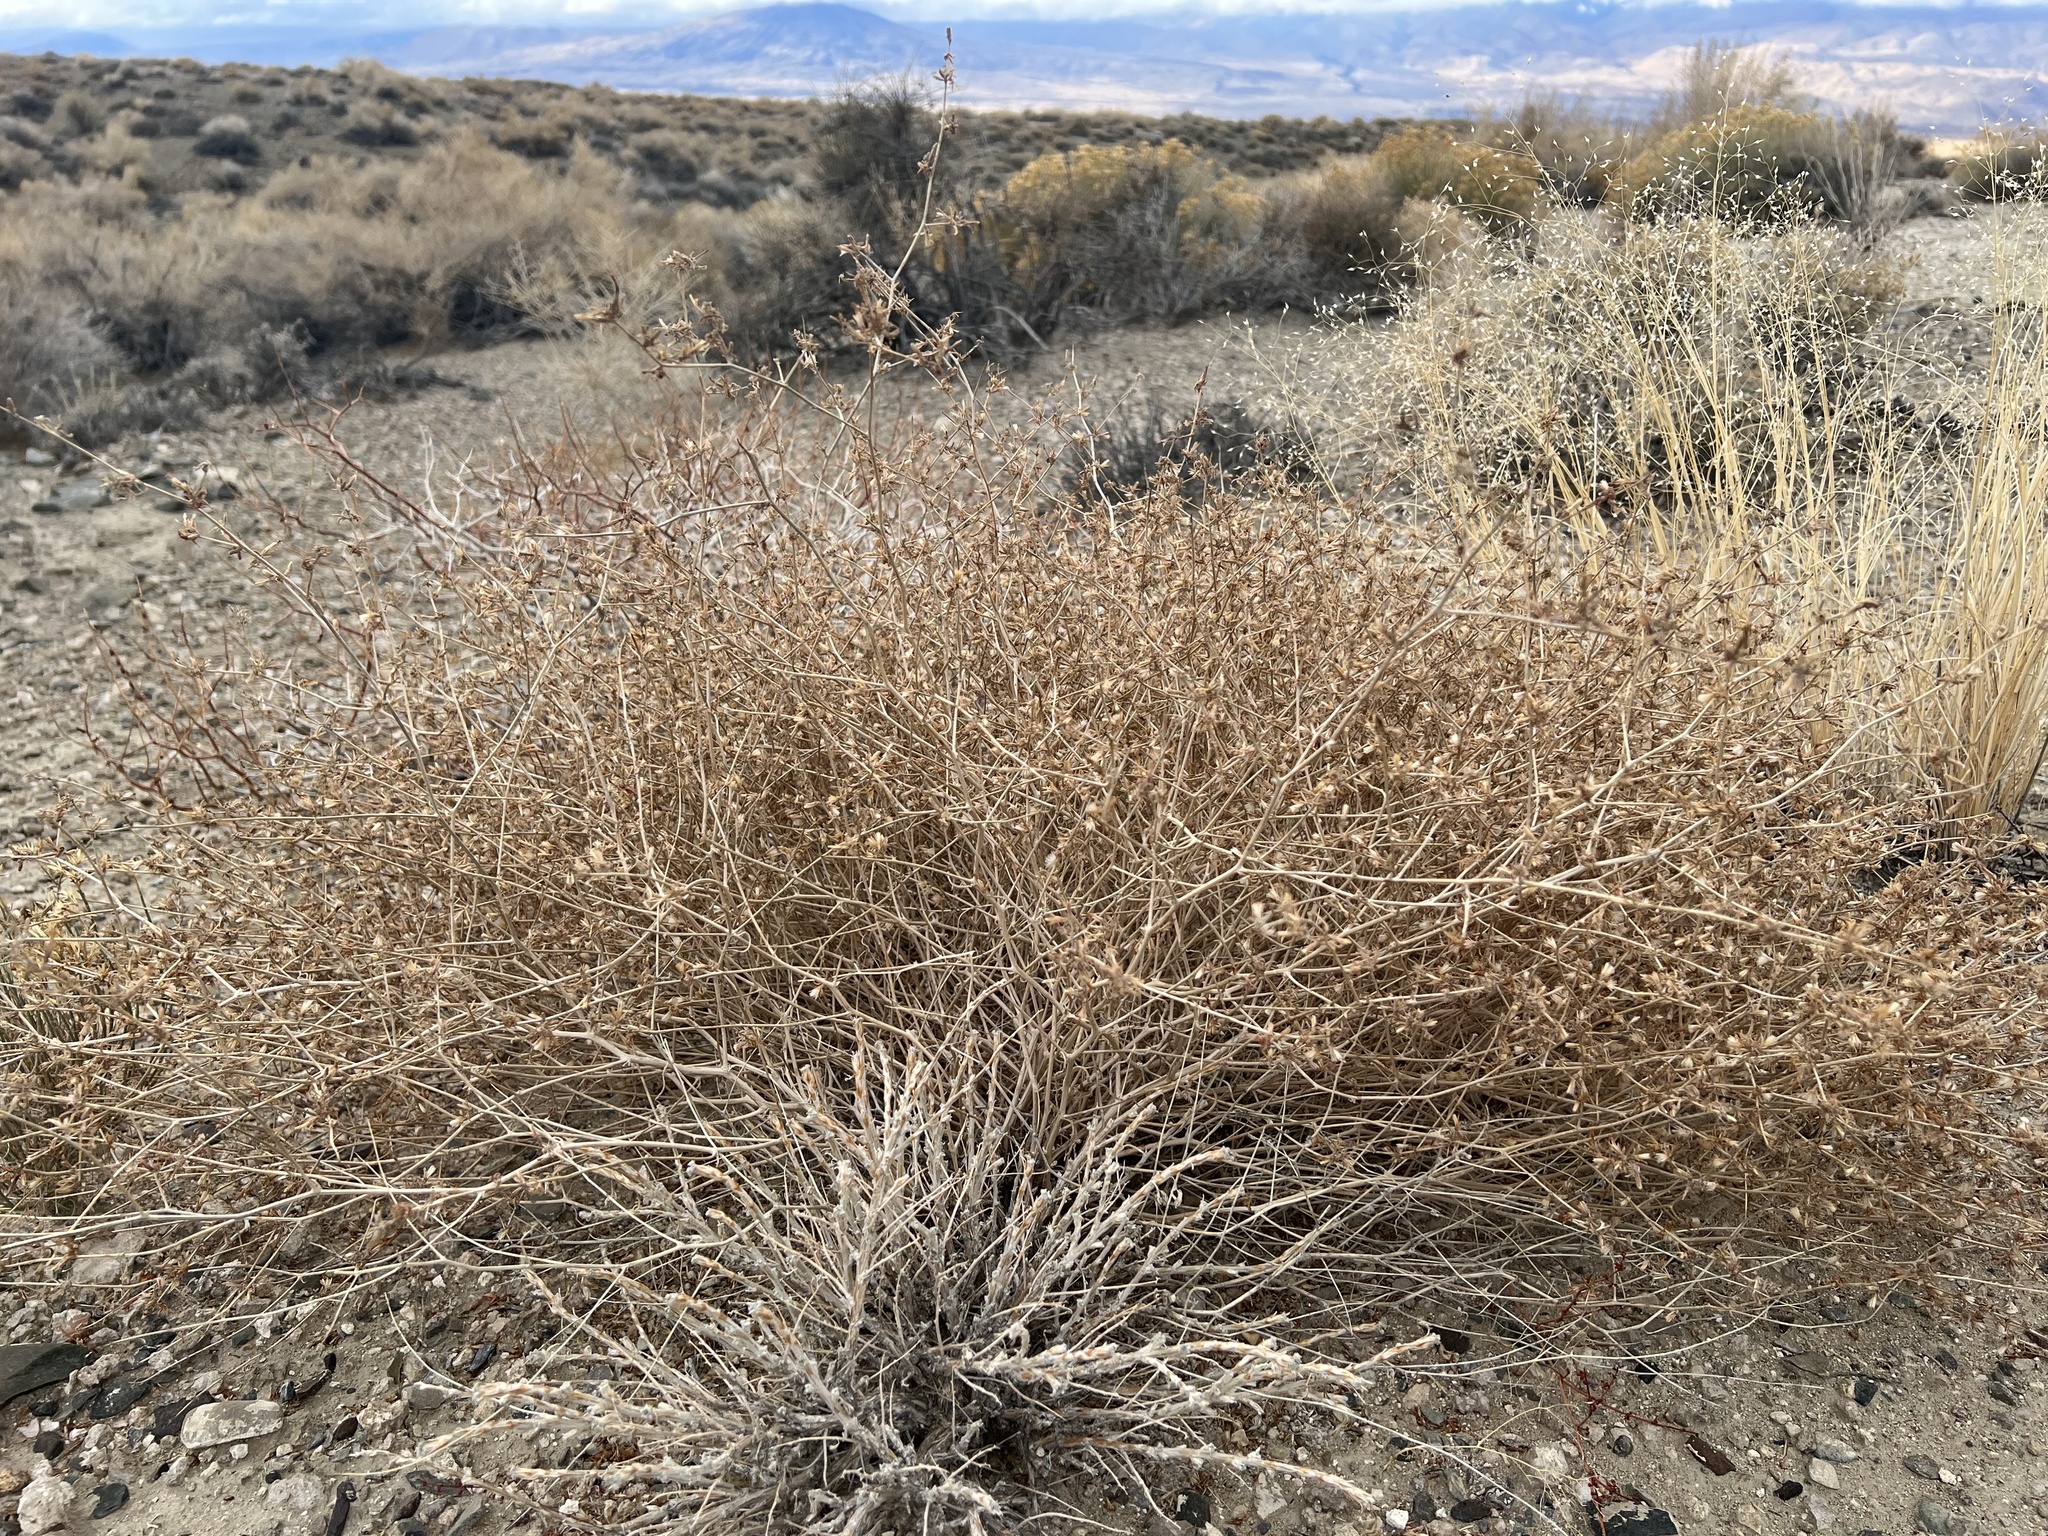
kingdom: Plantae
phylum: Tracheophyta
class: Magnoliopsida
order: Asterales
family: Asteraceae
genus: Stephanomeria
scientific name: Stephanomeria pauciflora
